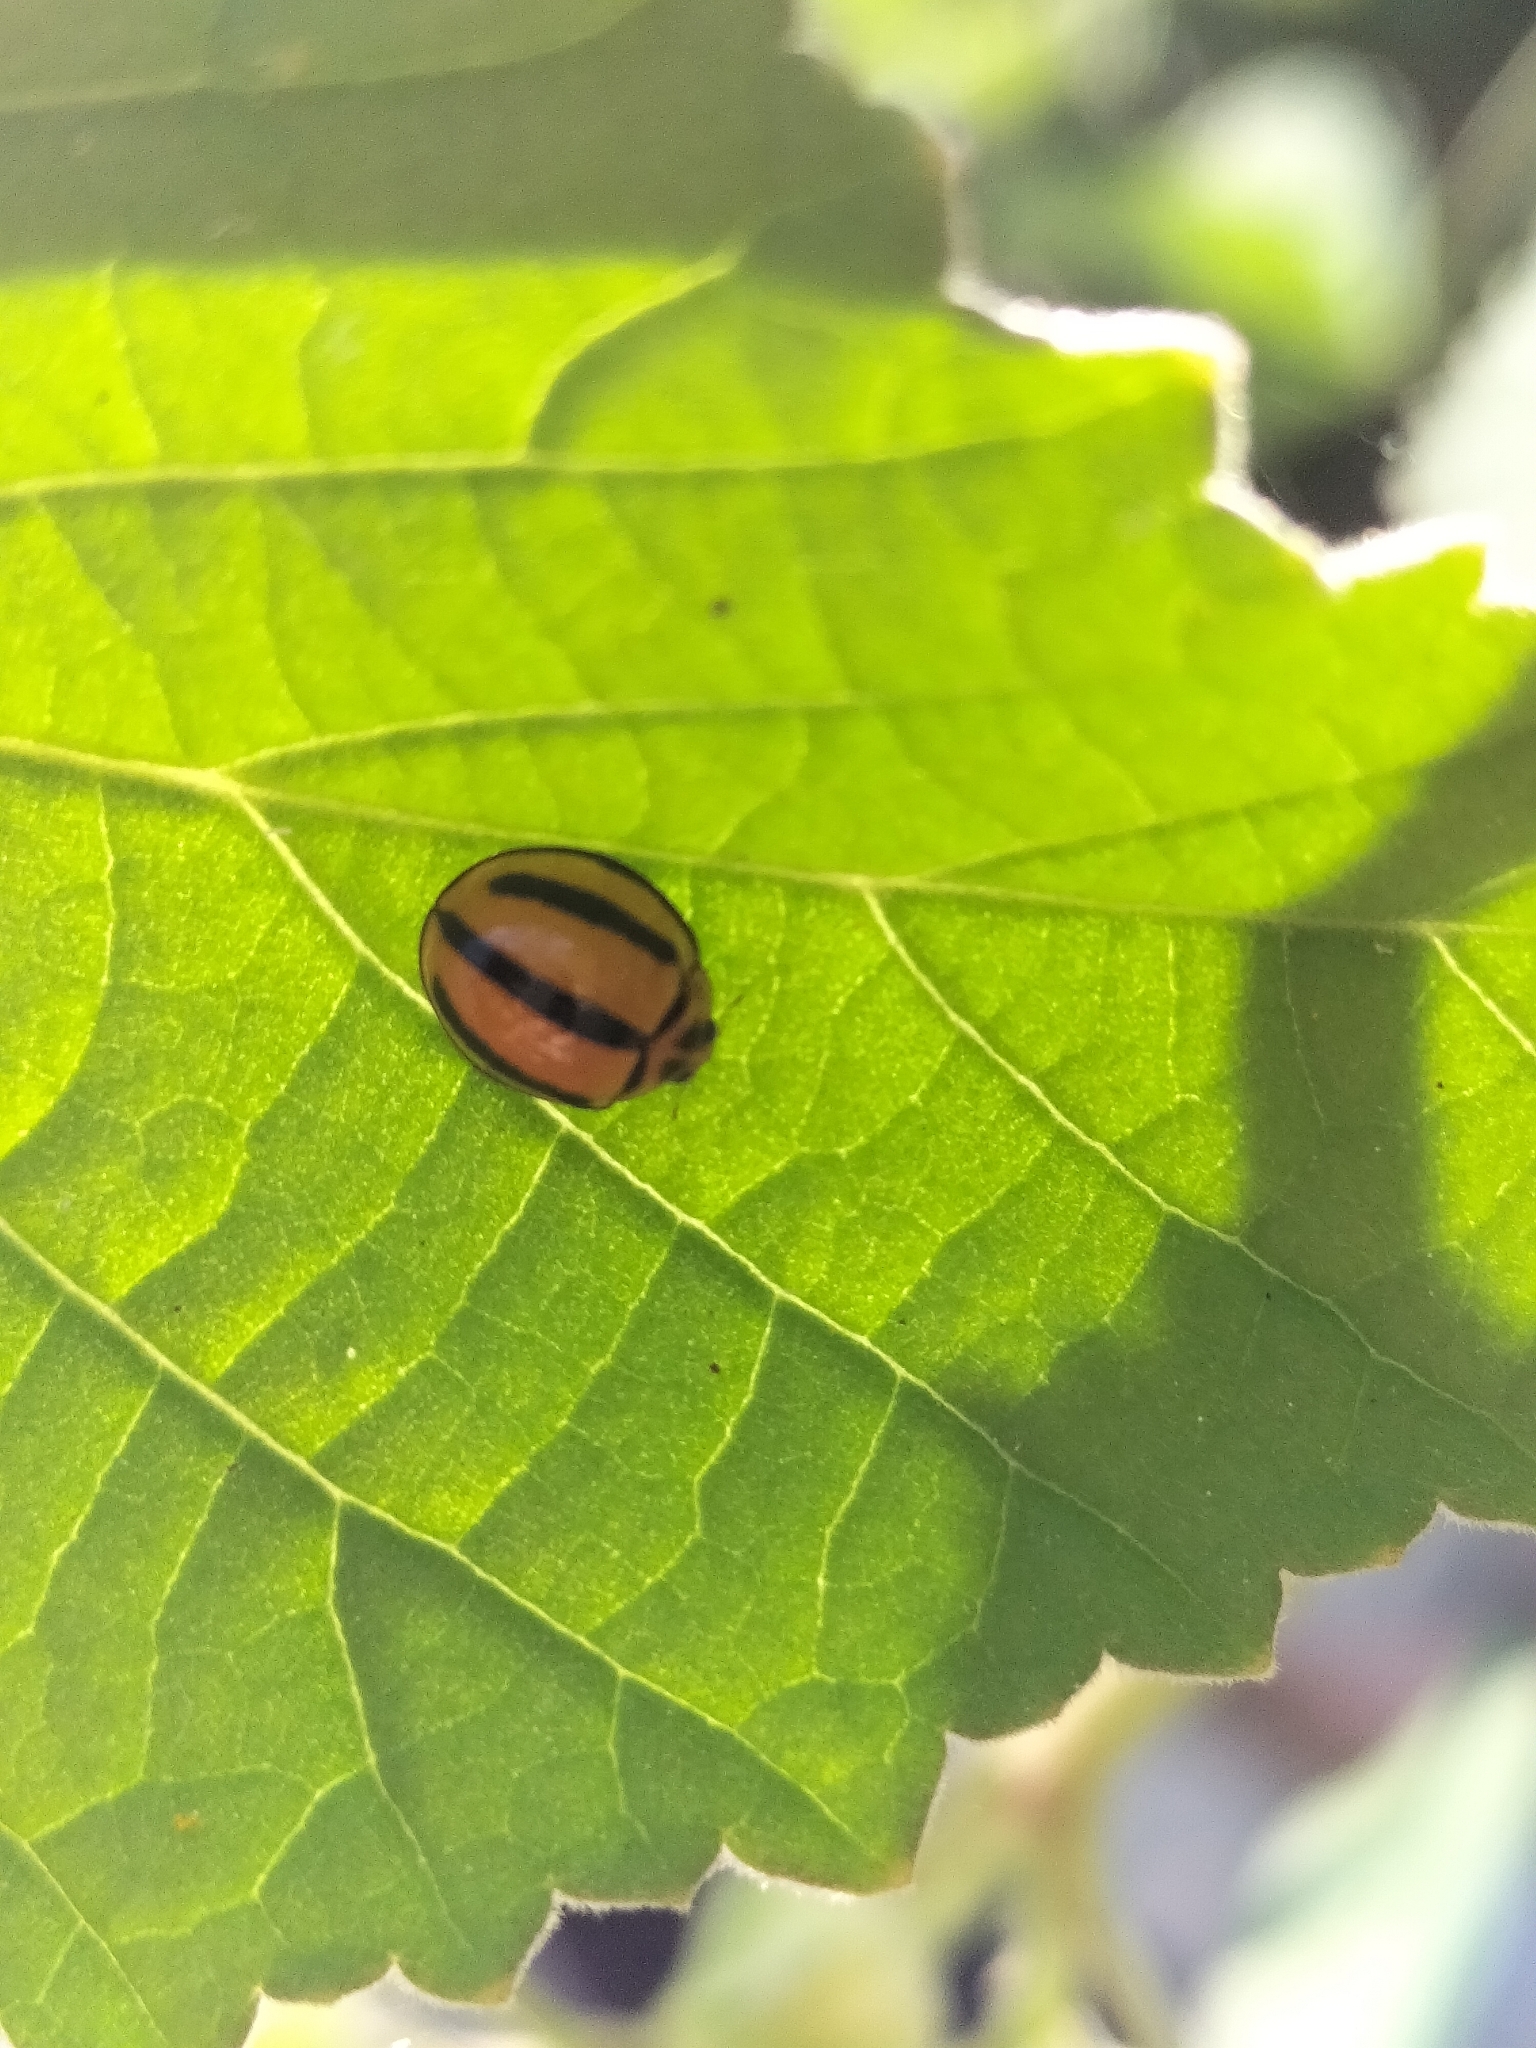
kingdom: Animalia
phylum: Arthropoda
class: Insecta
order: Coleoptera
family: Coccinellidae
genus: Coelophora
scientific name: Coelophora inaequalis
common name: Common australian lady beetle
